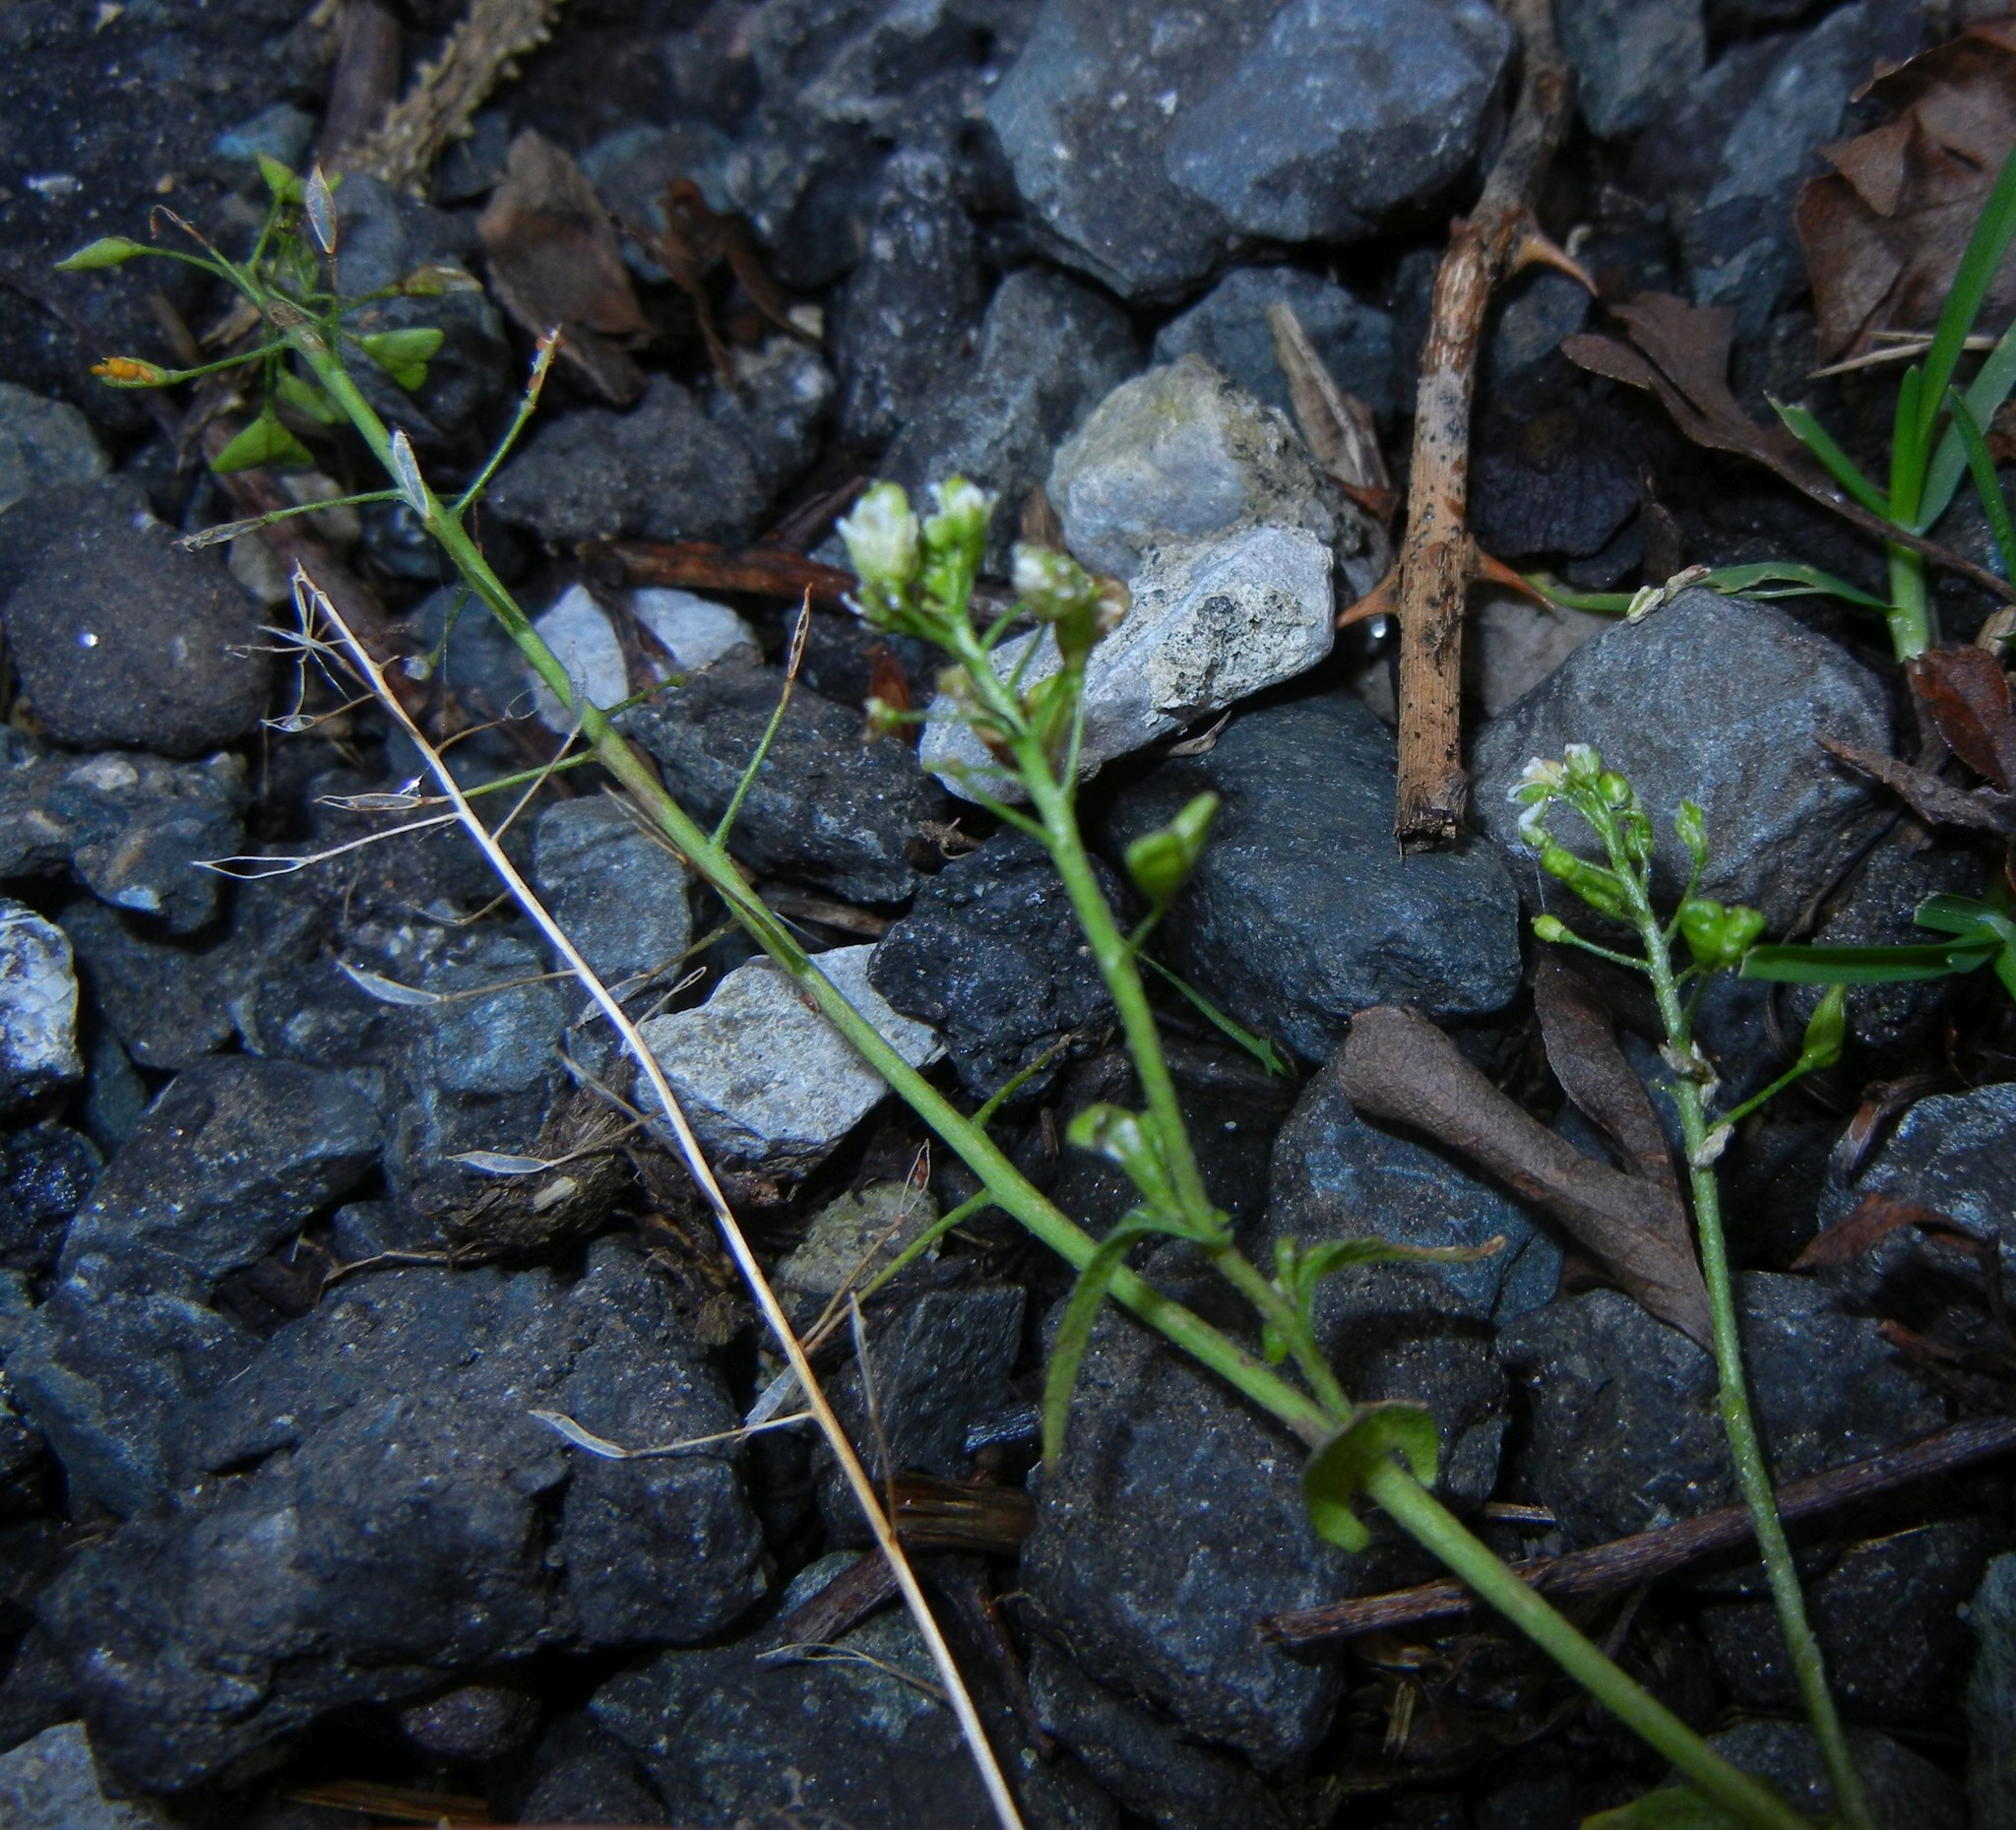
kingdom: Plantae
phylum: Tracheophyta
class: Magnoliopsida
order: Brassicales
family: Brassicaceae
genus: Capsella
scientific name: Capsella bursa-pastoris
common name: Shepherd's purse
